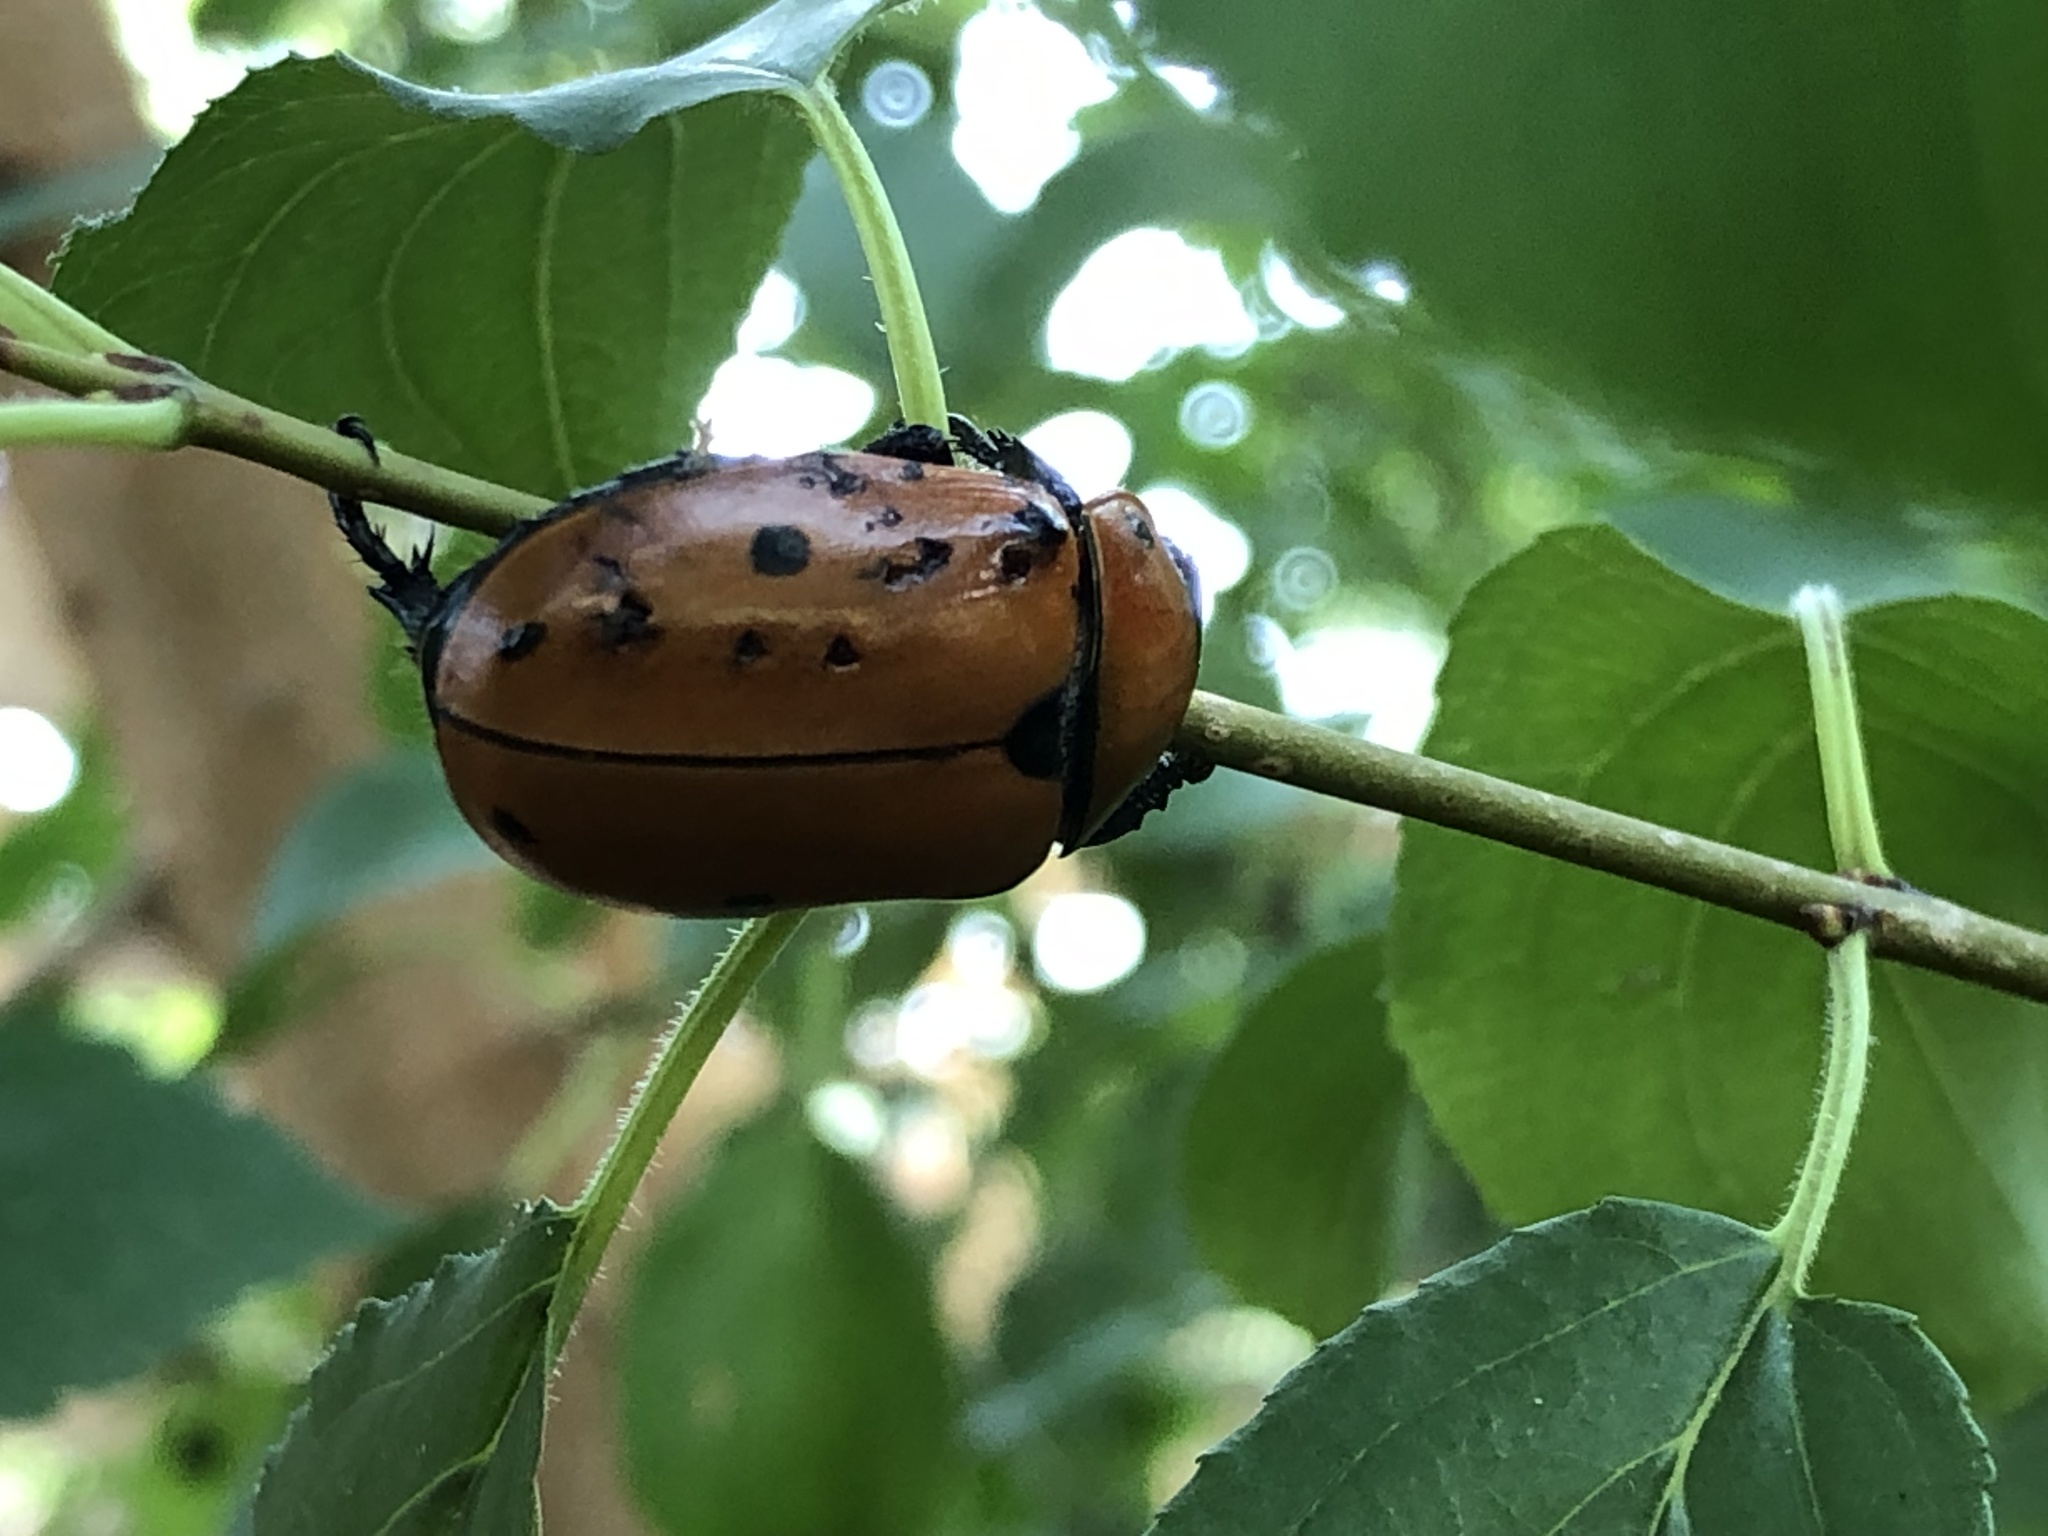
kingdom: Animalia
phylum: Arthropoda
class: Insecta
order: Coleoptera
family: Scarabaeidae
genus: Pelidnota
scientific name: Pelidnota punctata
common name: Grapevine beetle
